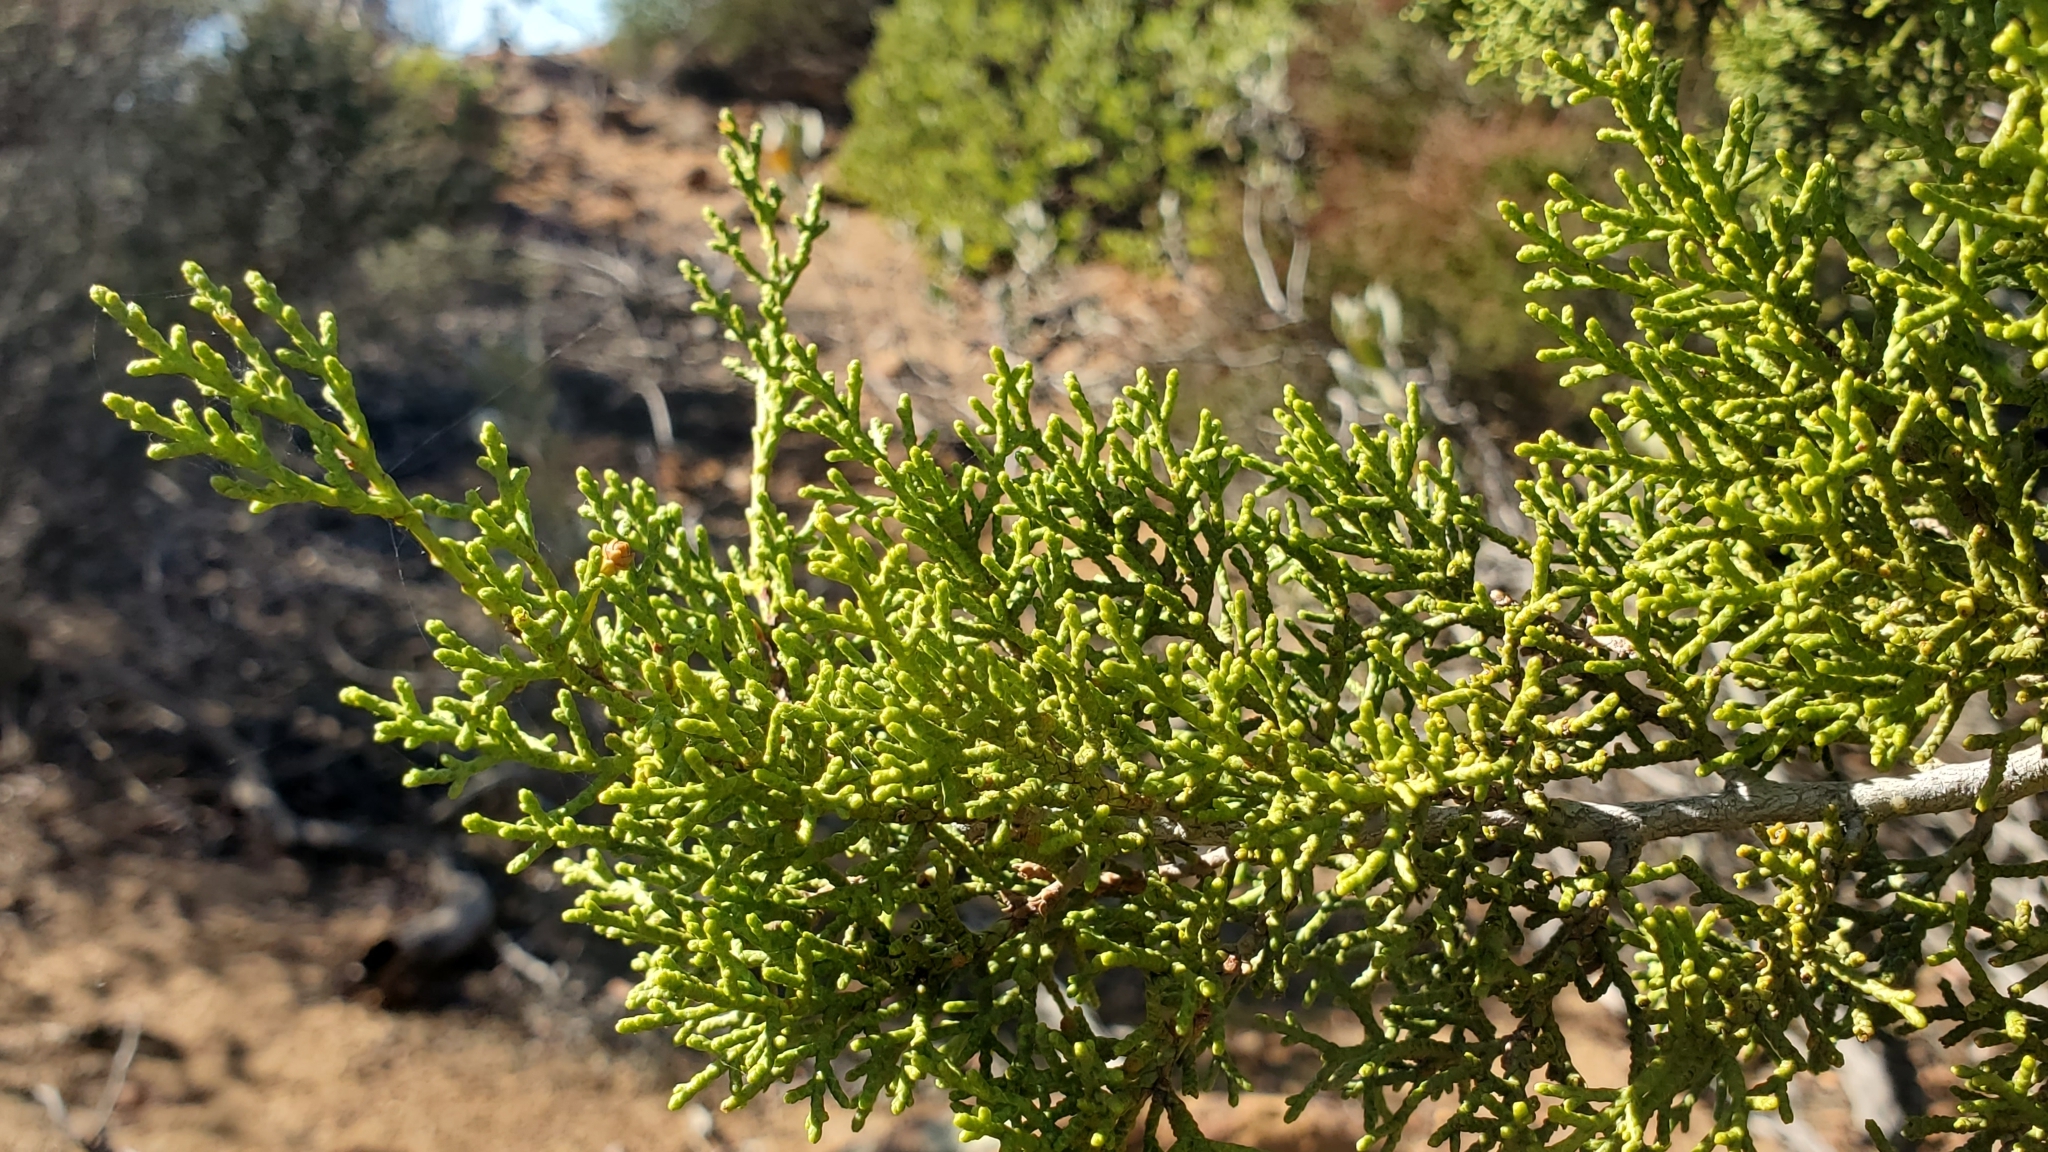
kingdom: Plantae
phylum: Tracheophyta
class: Pinopsida
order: Pinales
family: Cupressaceae
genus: Cupressus
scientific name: Cupressus guadalupensis
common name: Forbes cypress
